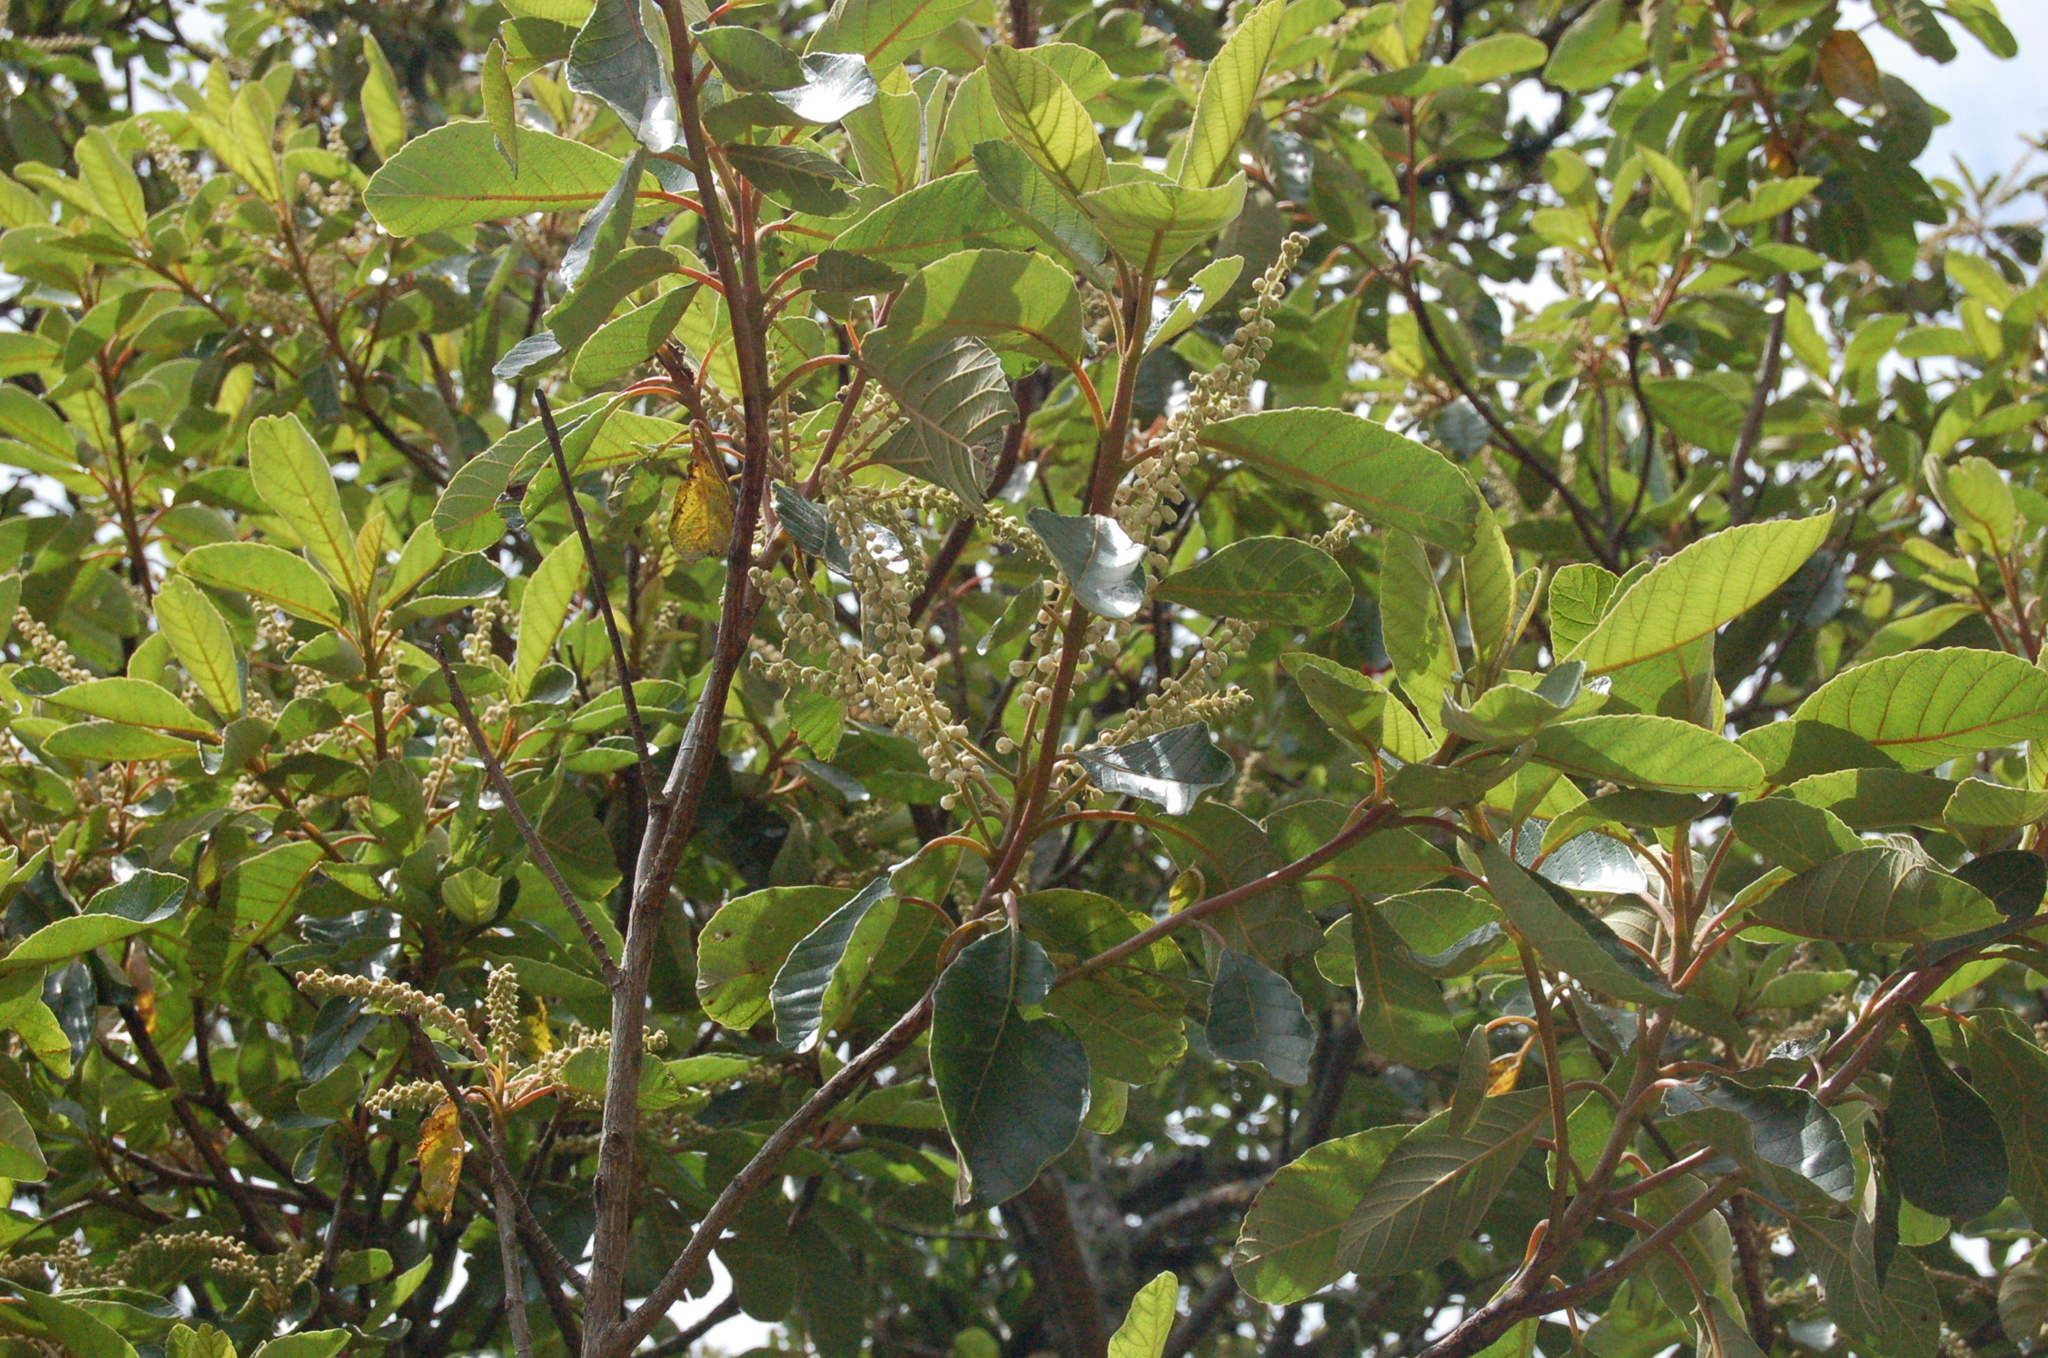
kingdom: Plantae
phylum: Tracheophyta
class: Magnoliopsida
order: Ericales
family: Clethraceae
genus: Clethra
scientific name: Clethra mexicana
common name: Nance macho
